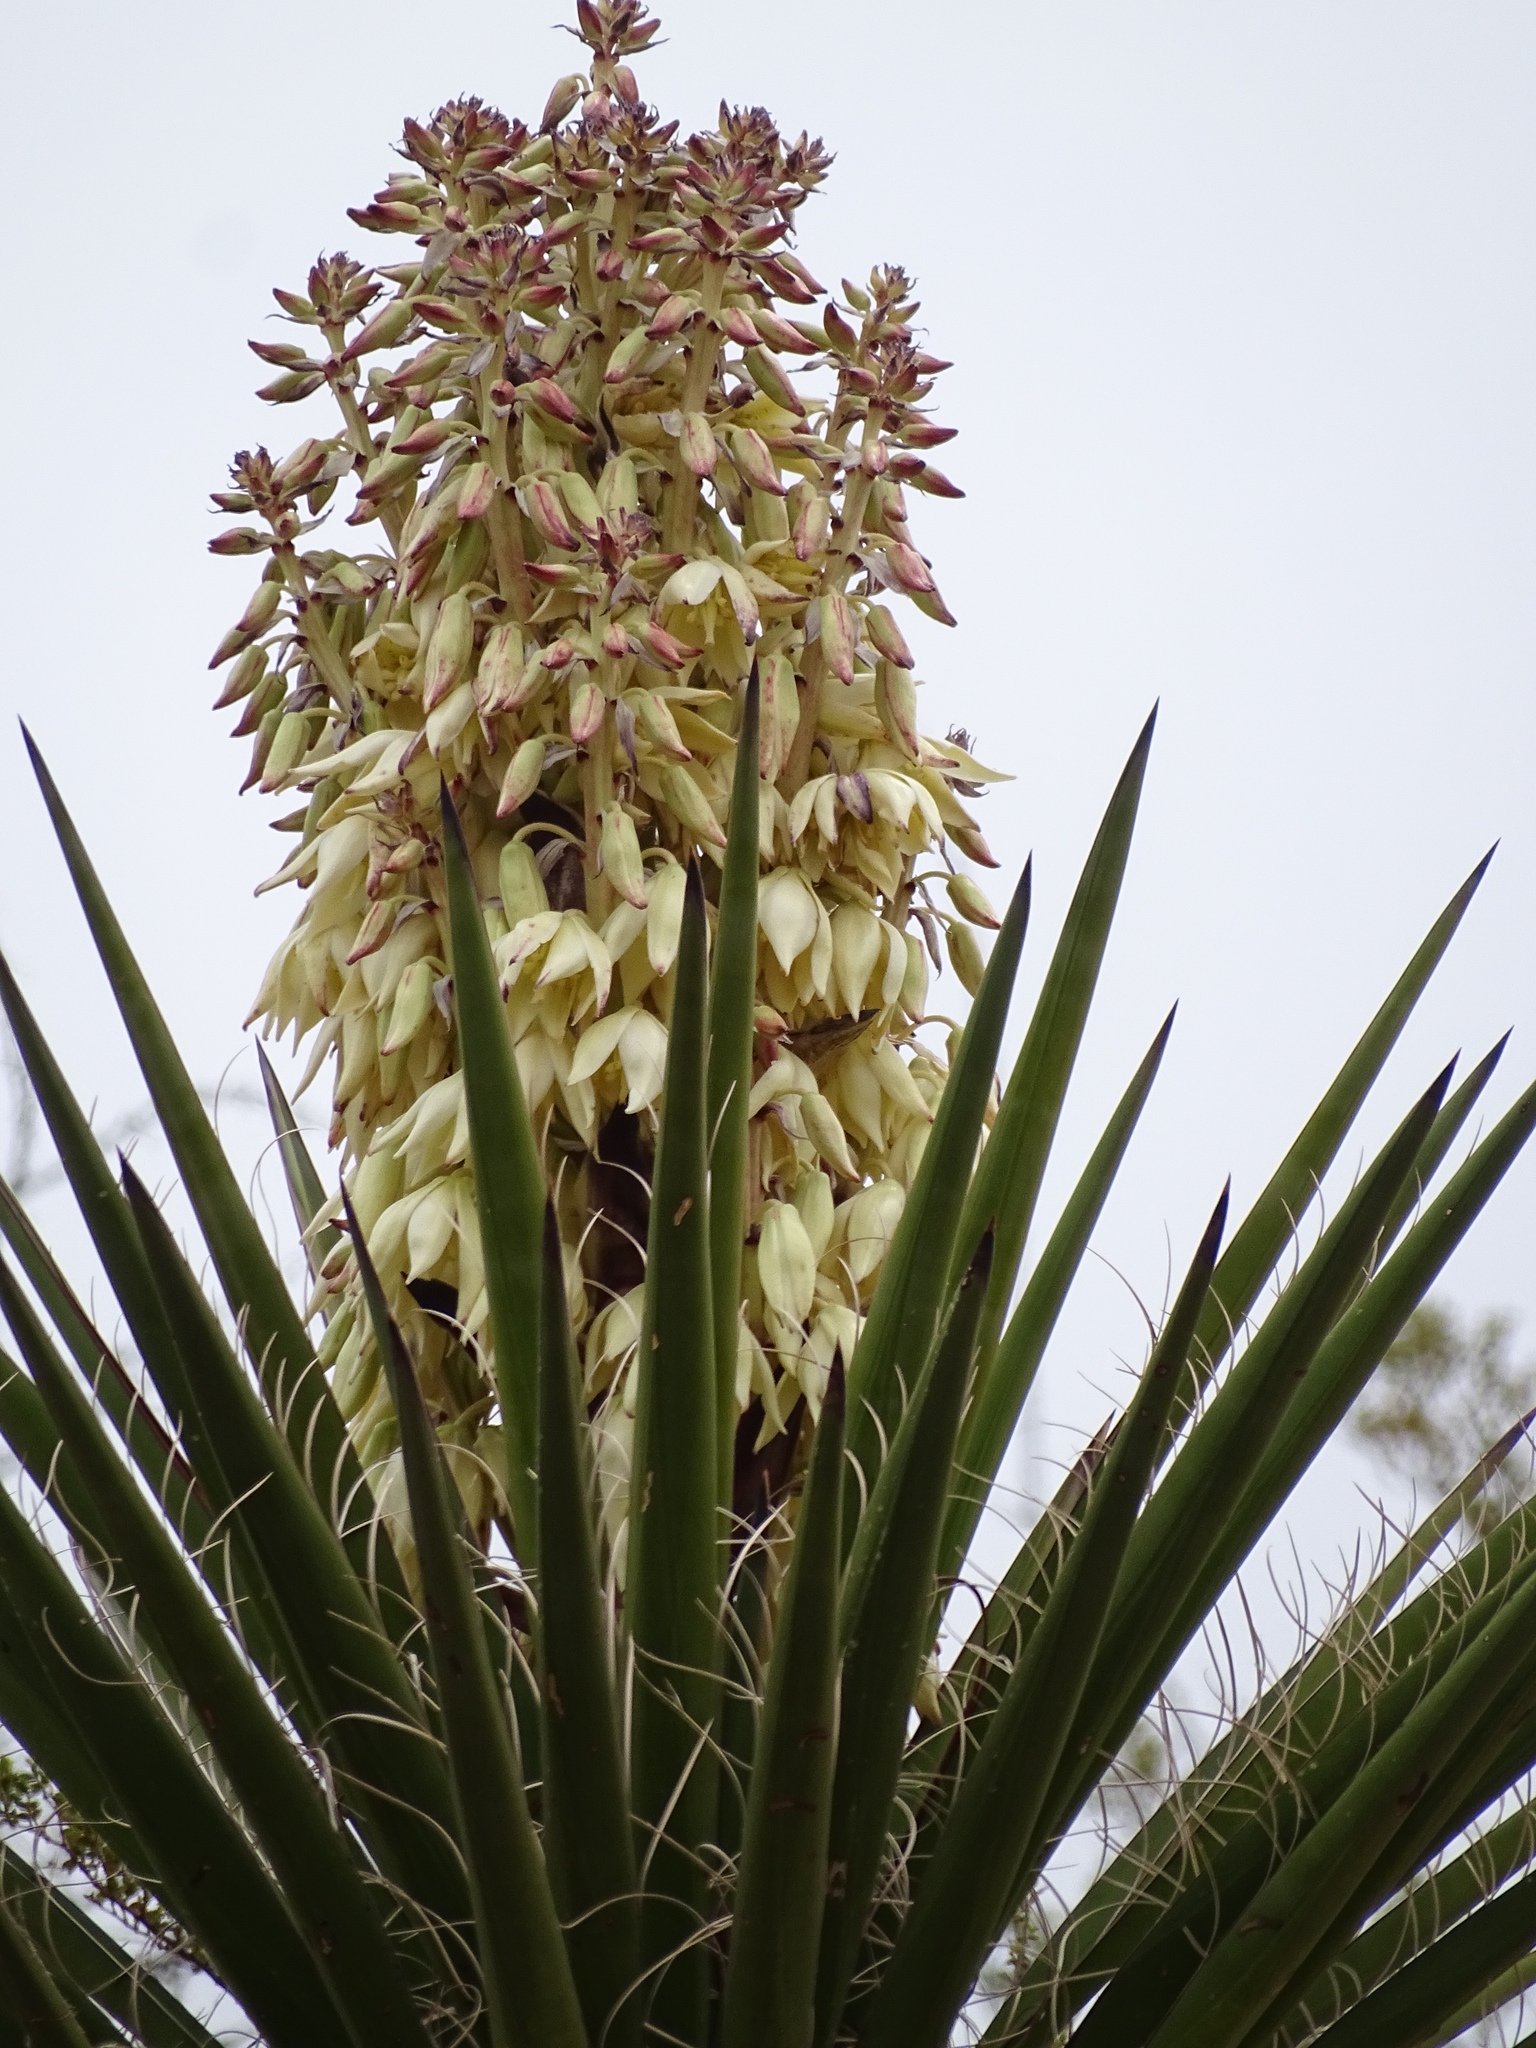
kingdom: Plantae
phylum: Tracheophyta
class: Liliopsida
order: Asparagales
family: Asparagaceae
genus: Yucca
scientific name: Yucca treculiana
